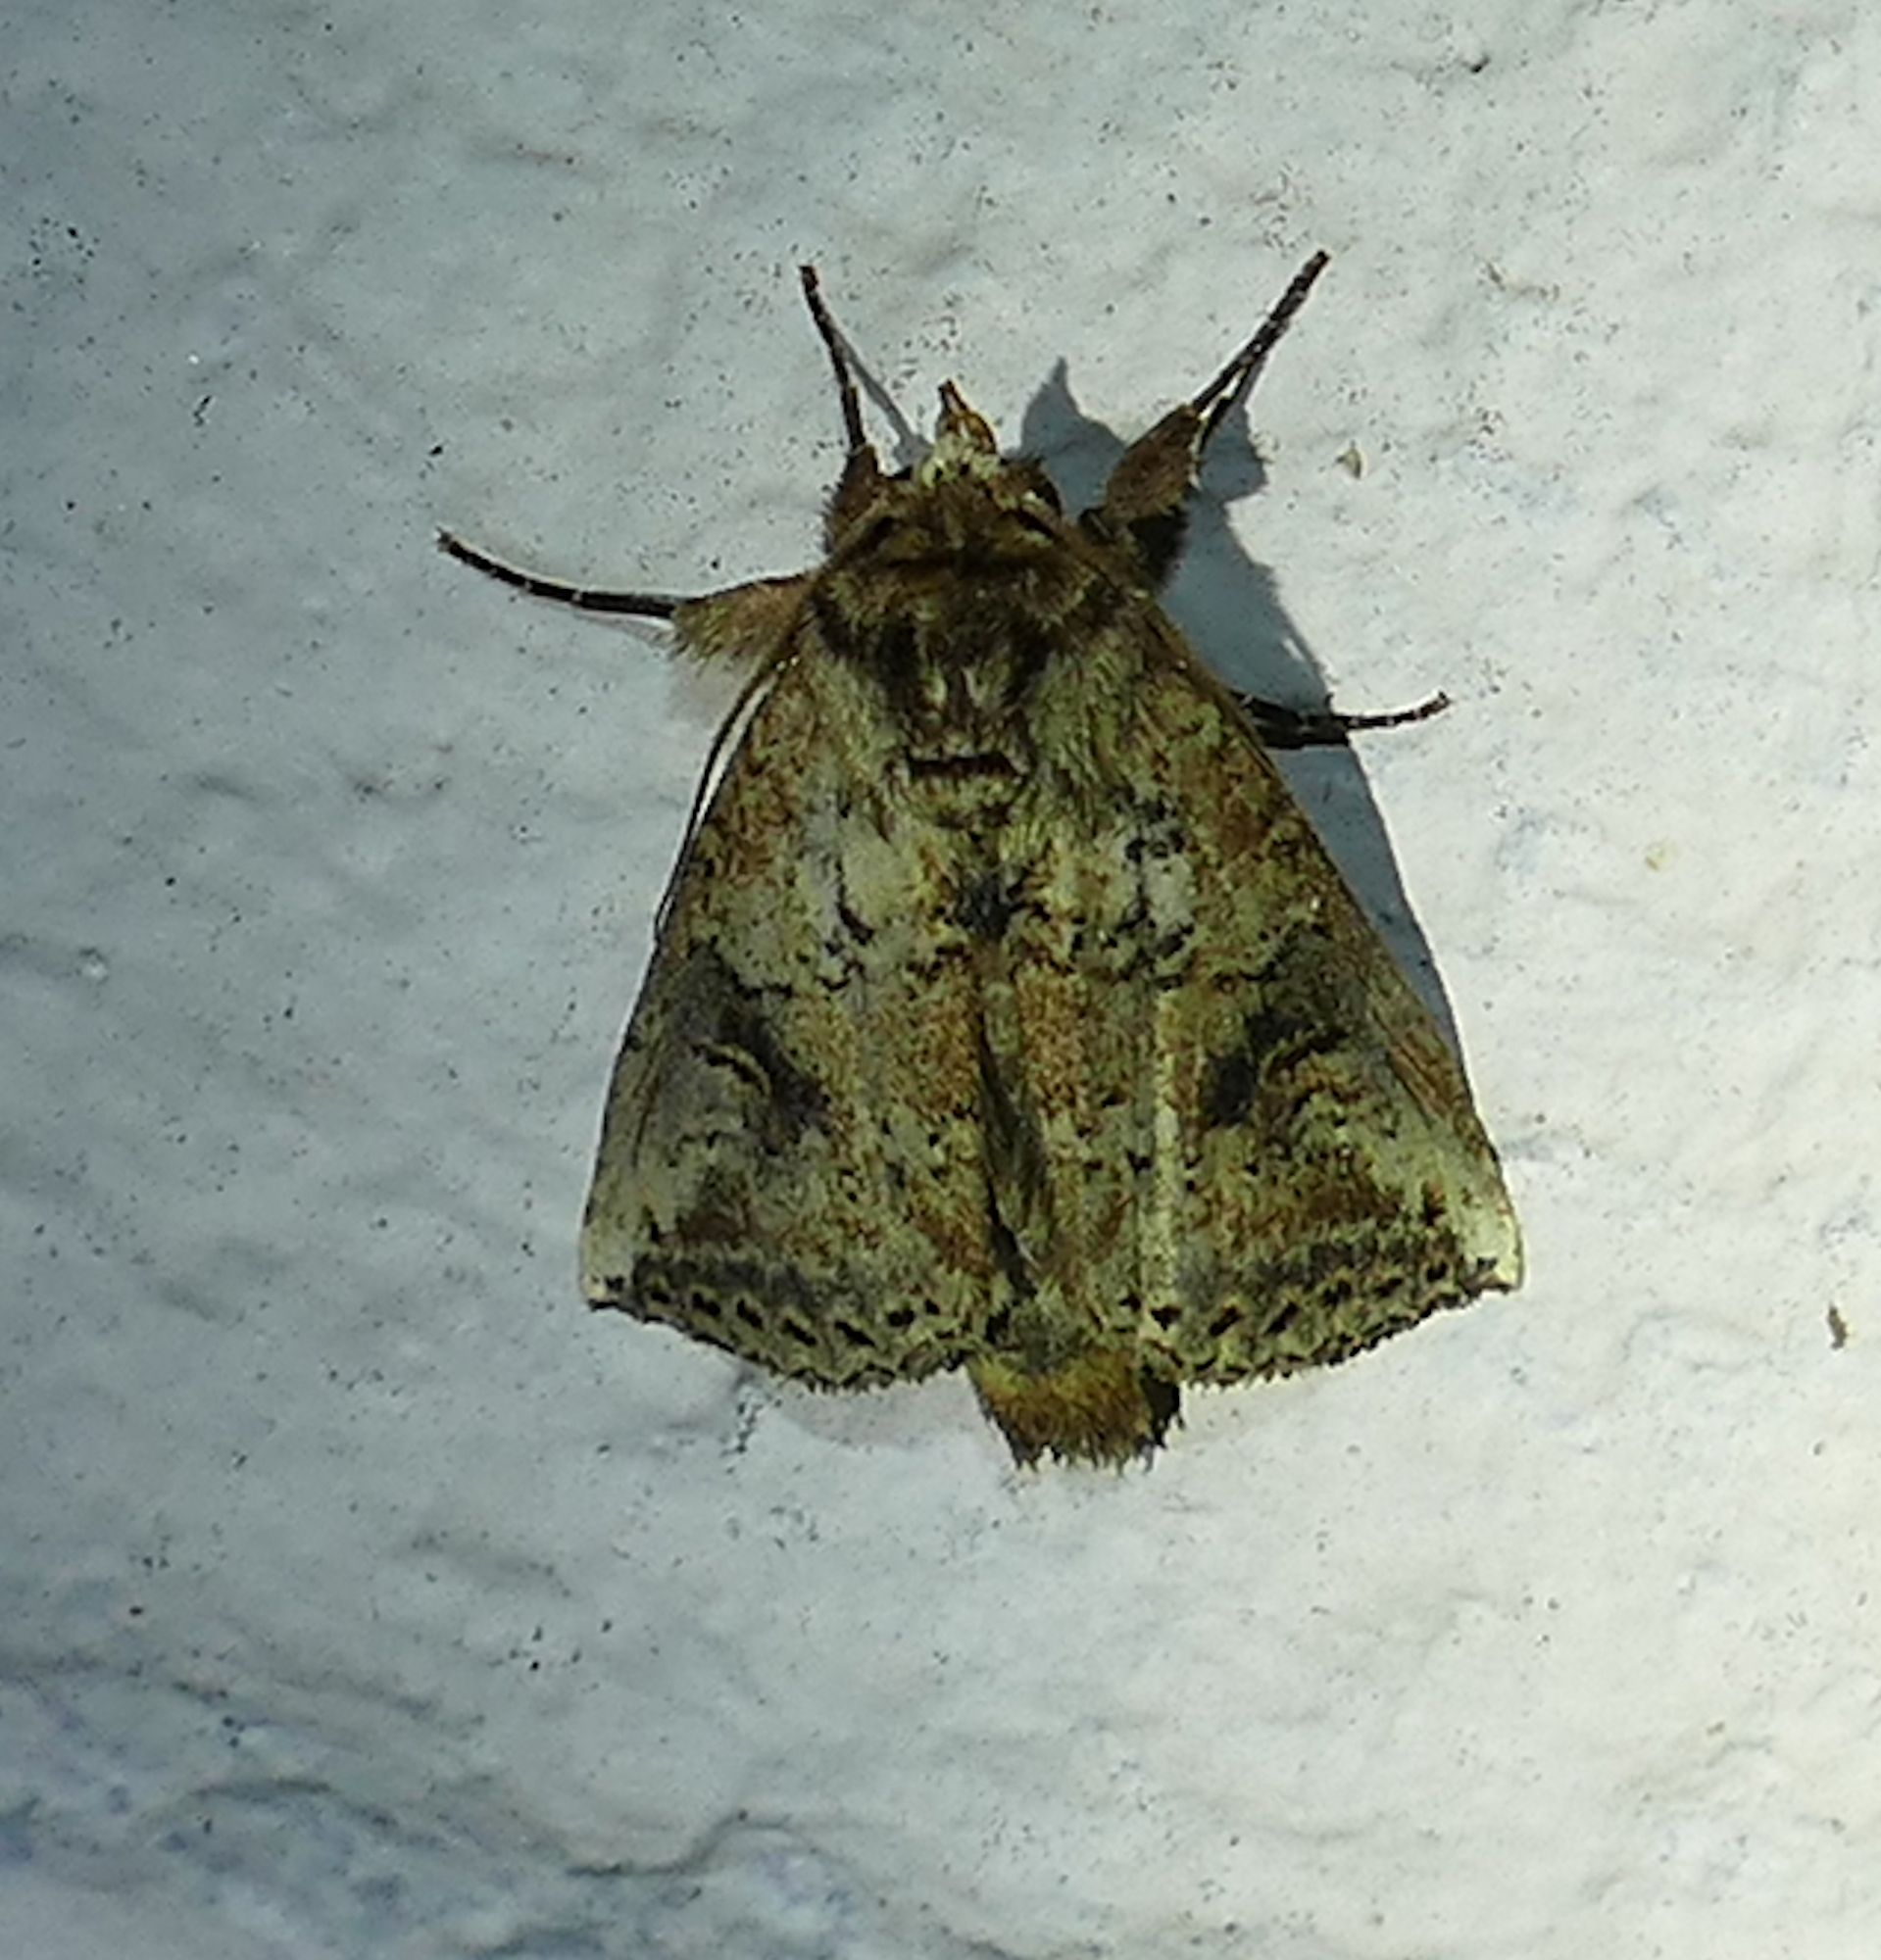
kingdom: Animalia
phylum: Arthropoda
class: Insecta
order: Lepidoptera
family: Notodontidae
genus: Elasmia
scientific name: Elasmia packardii
